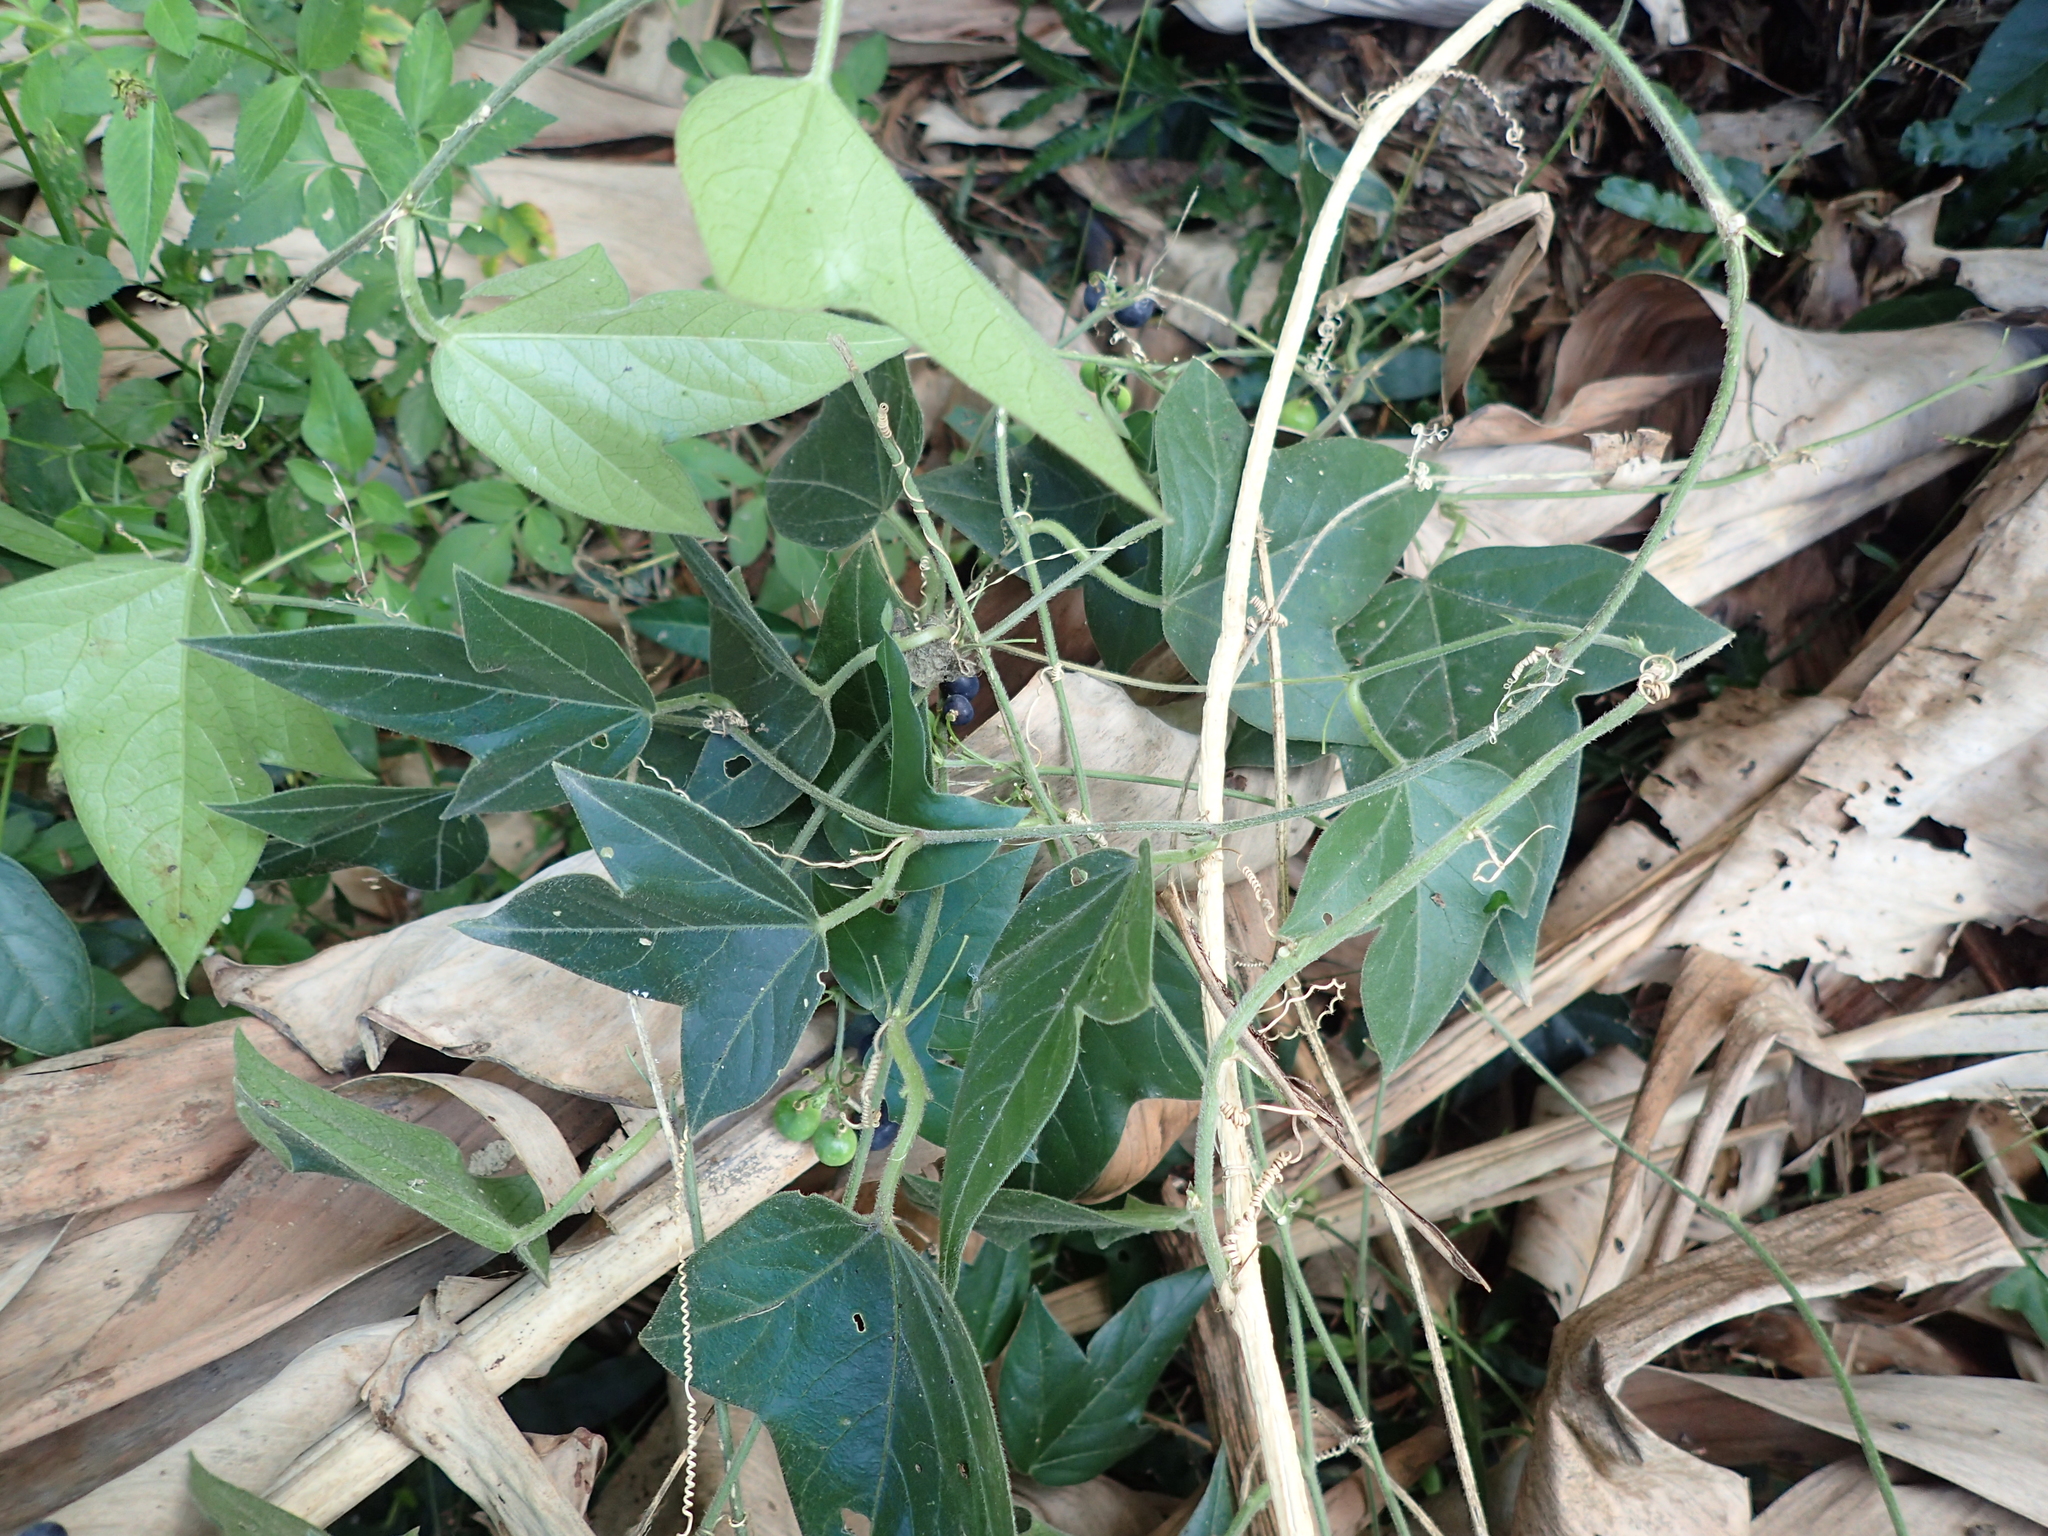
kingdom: Plantae
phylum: Tracheophyta
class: Magnoliopsida
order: Malpighiales
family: Passifloraceae
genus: Passiflora
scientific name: Passiflora suberosa
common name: Wild passionfruit
